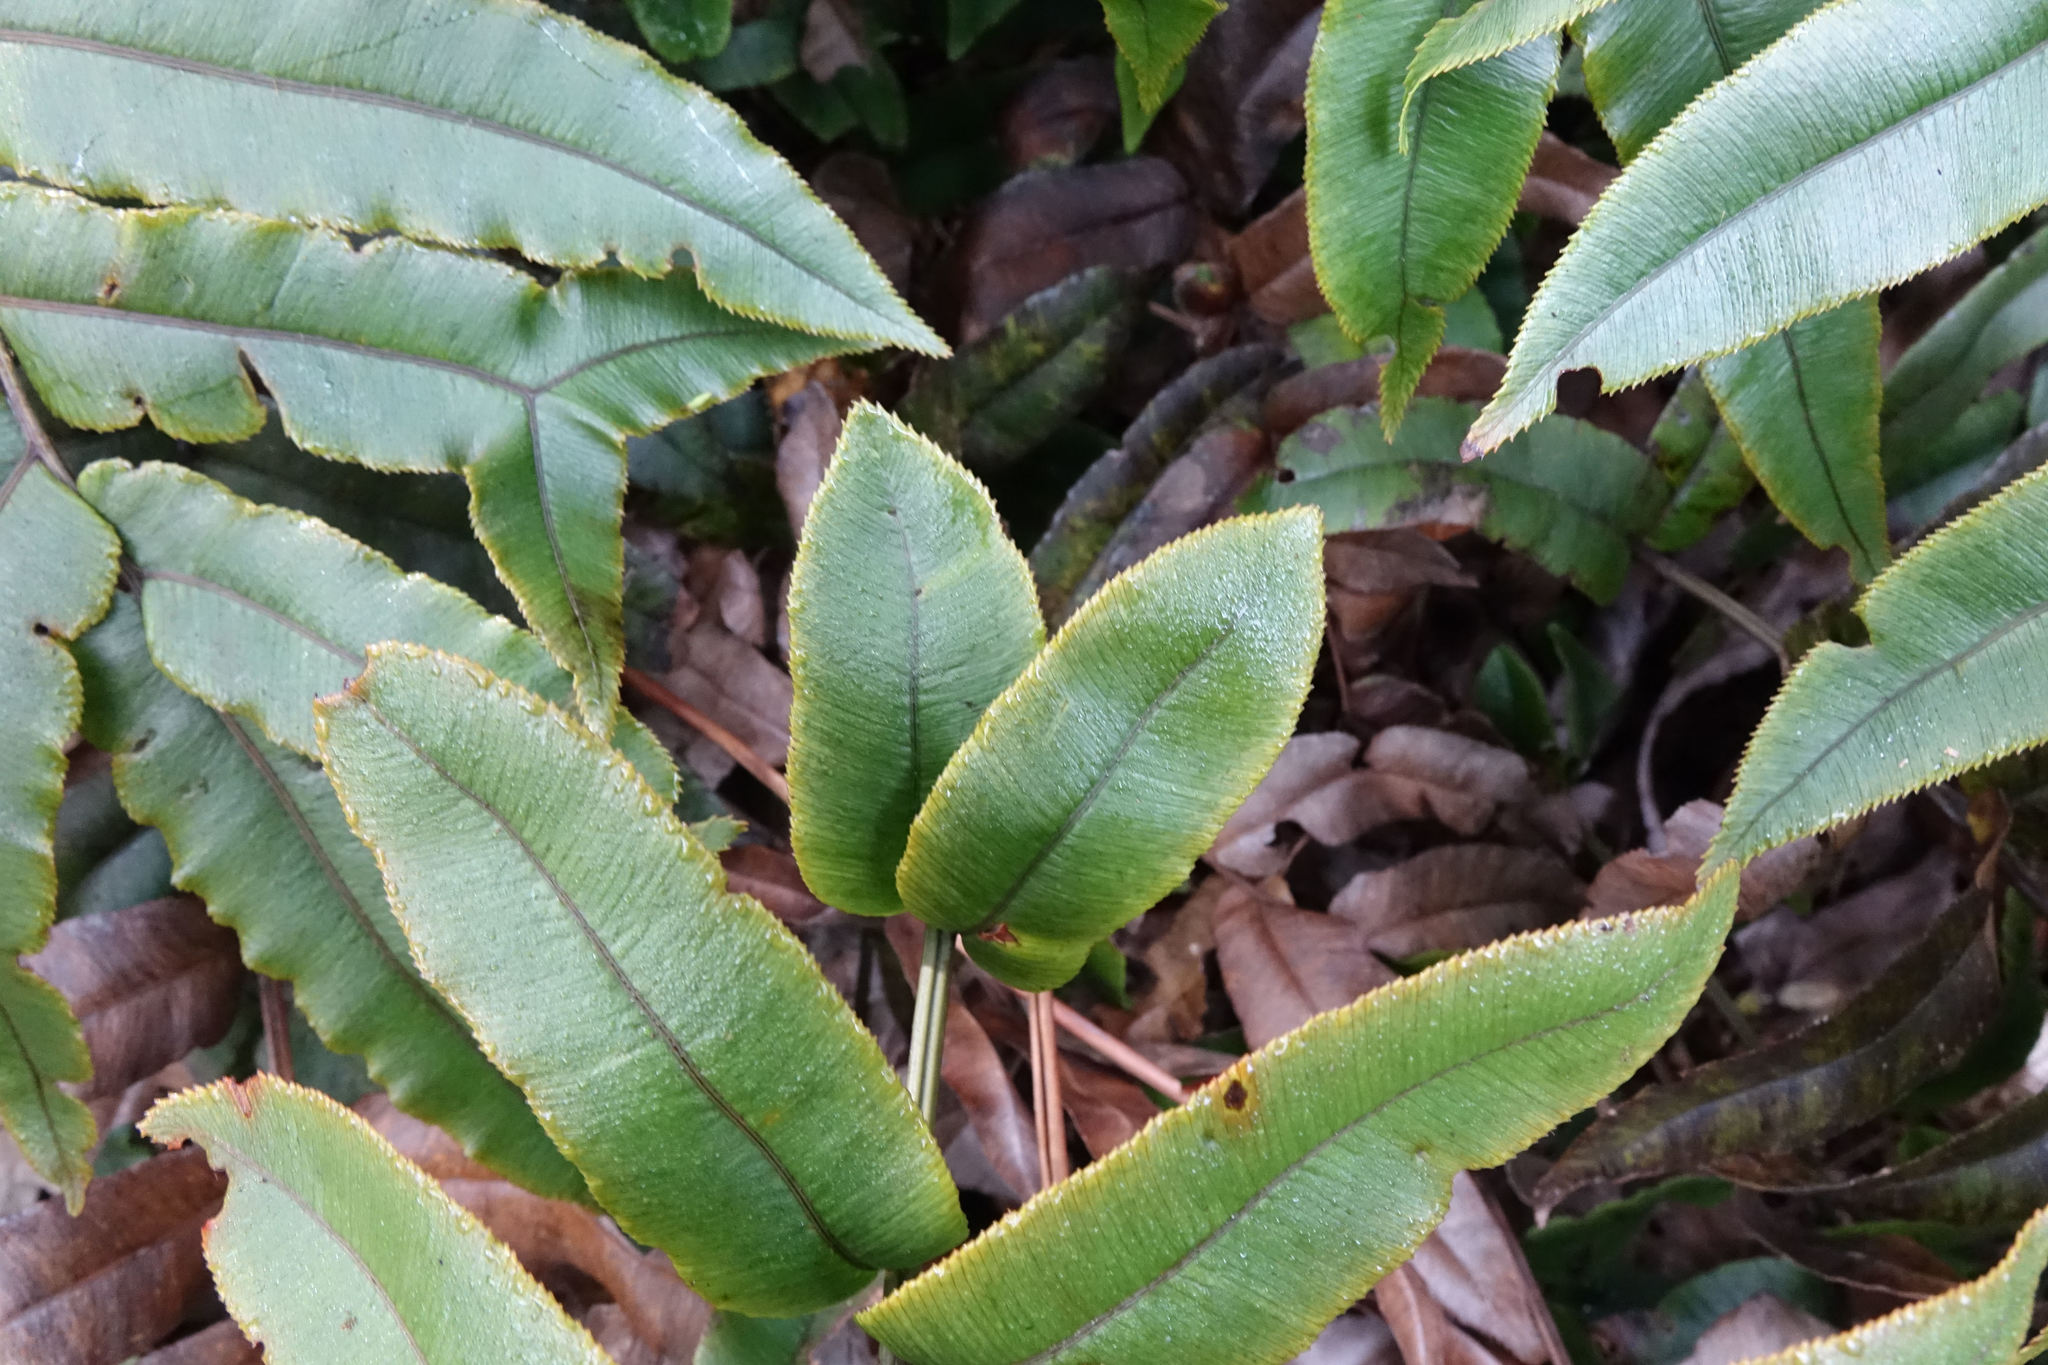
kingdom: Plantae
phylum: Tracheophyta
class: Polypodiopsida
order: Polypodiales
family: Blechnaceae
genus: Parablechnum
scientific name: Parablechnum procerum
